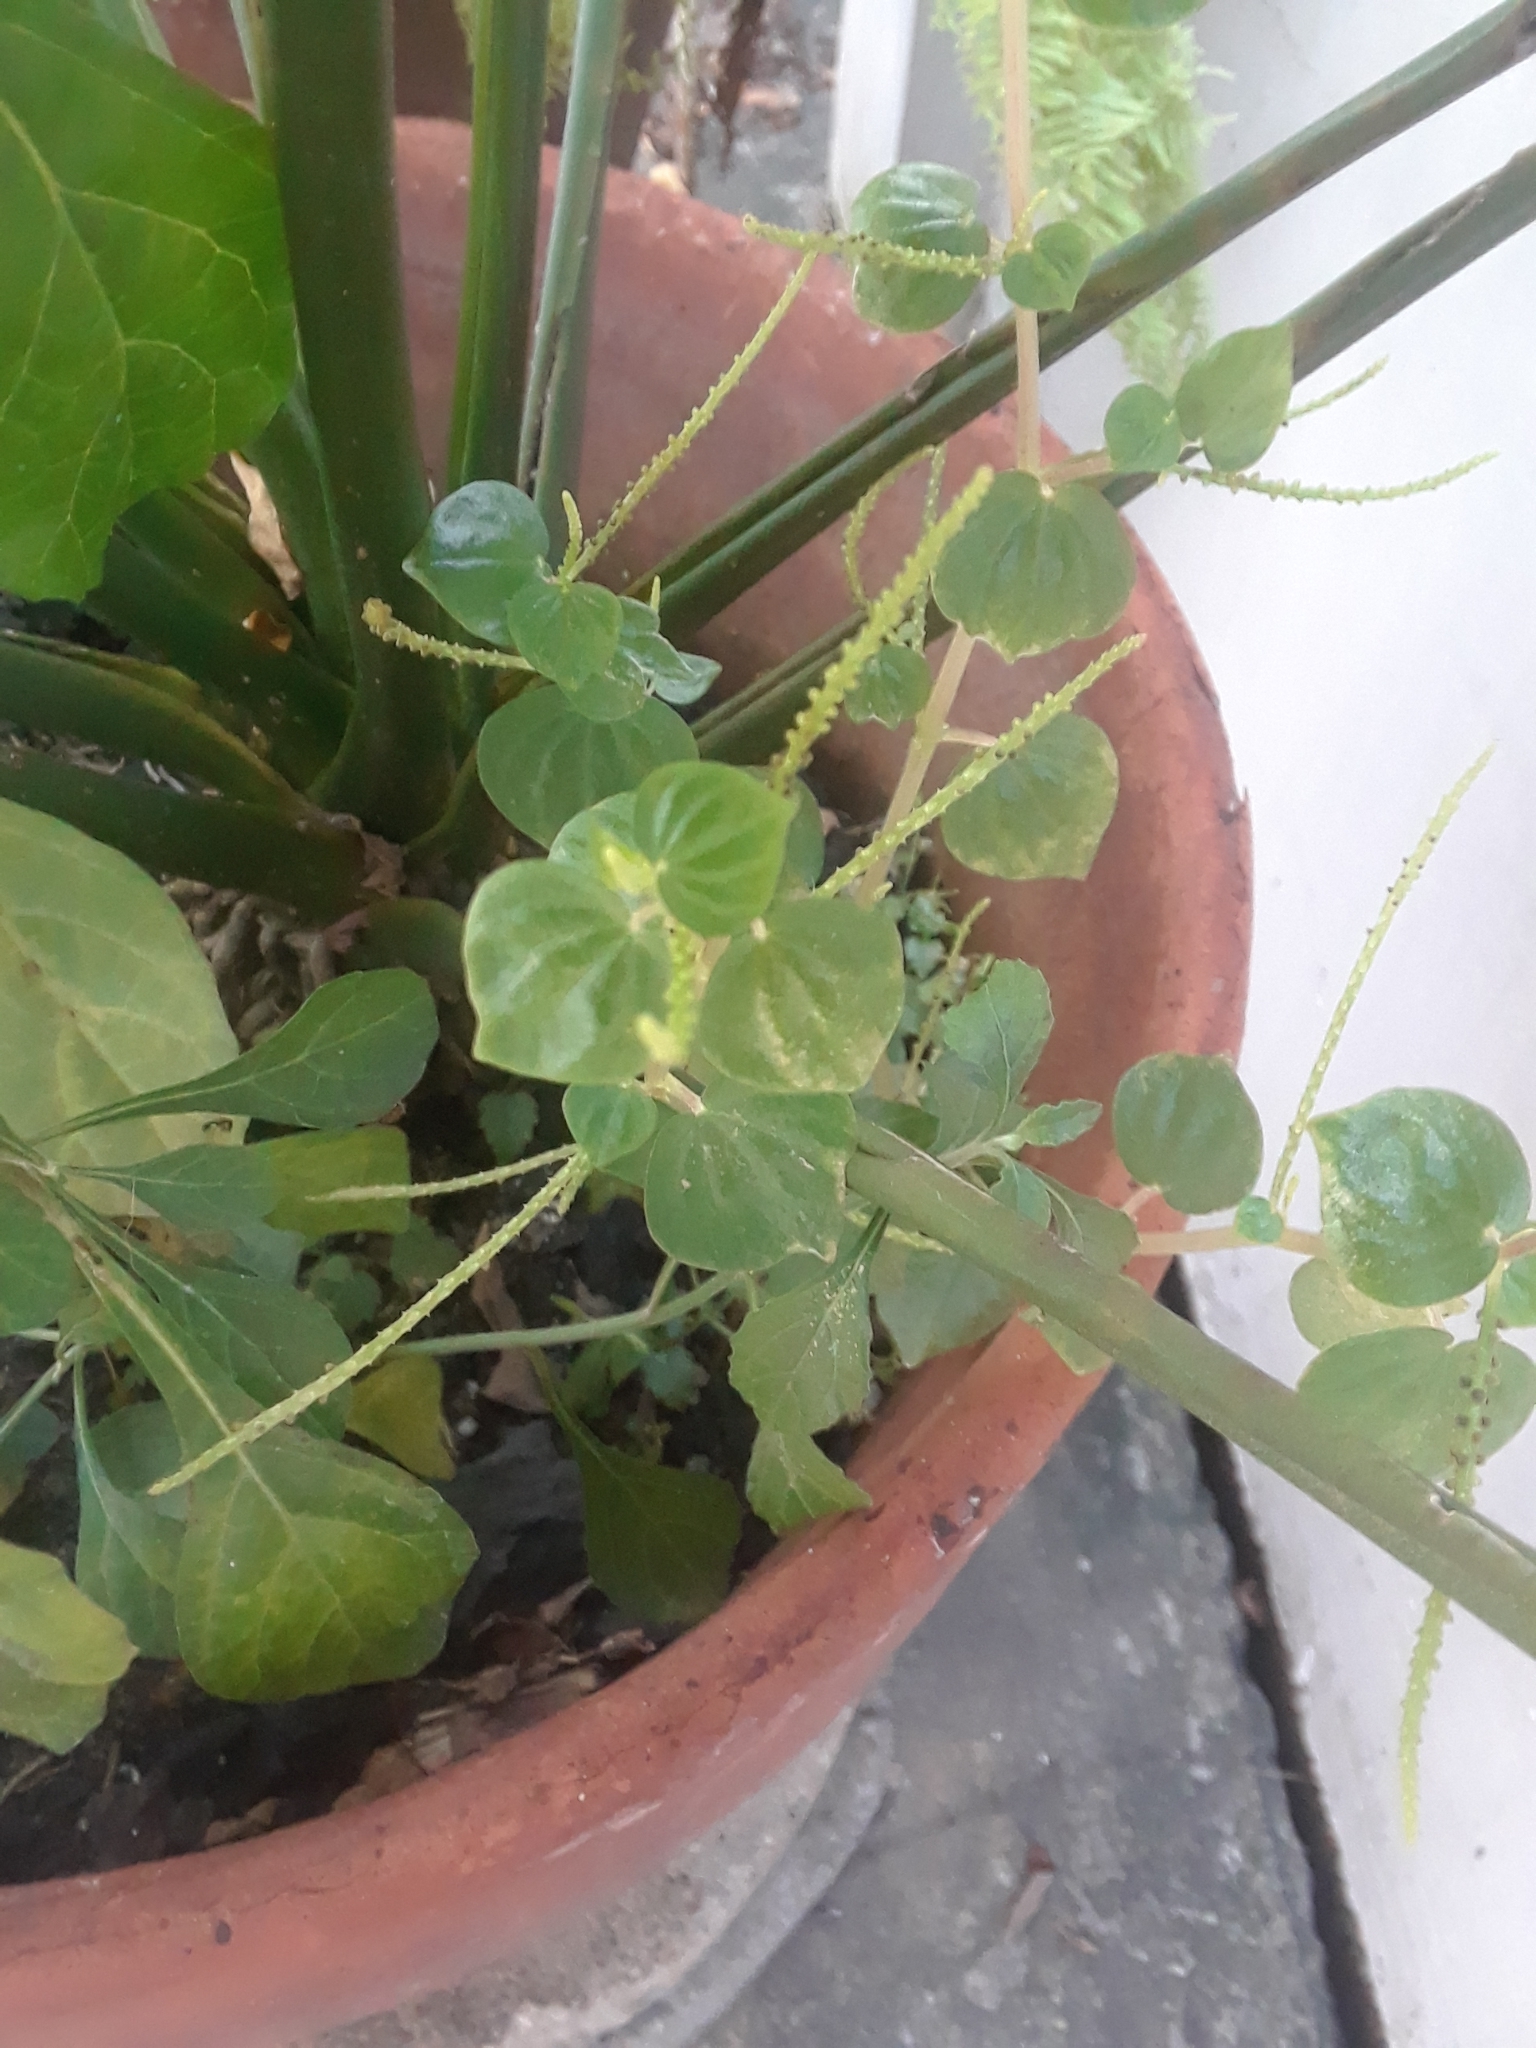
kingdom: Plantae
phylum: Tracheophyta
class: Magnoliopsida
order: Piperales
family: Piperaceae
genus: Peperomia
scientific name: Peperomia pellucida
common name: Man to man
